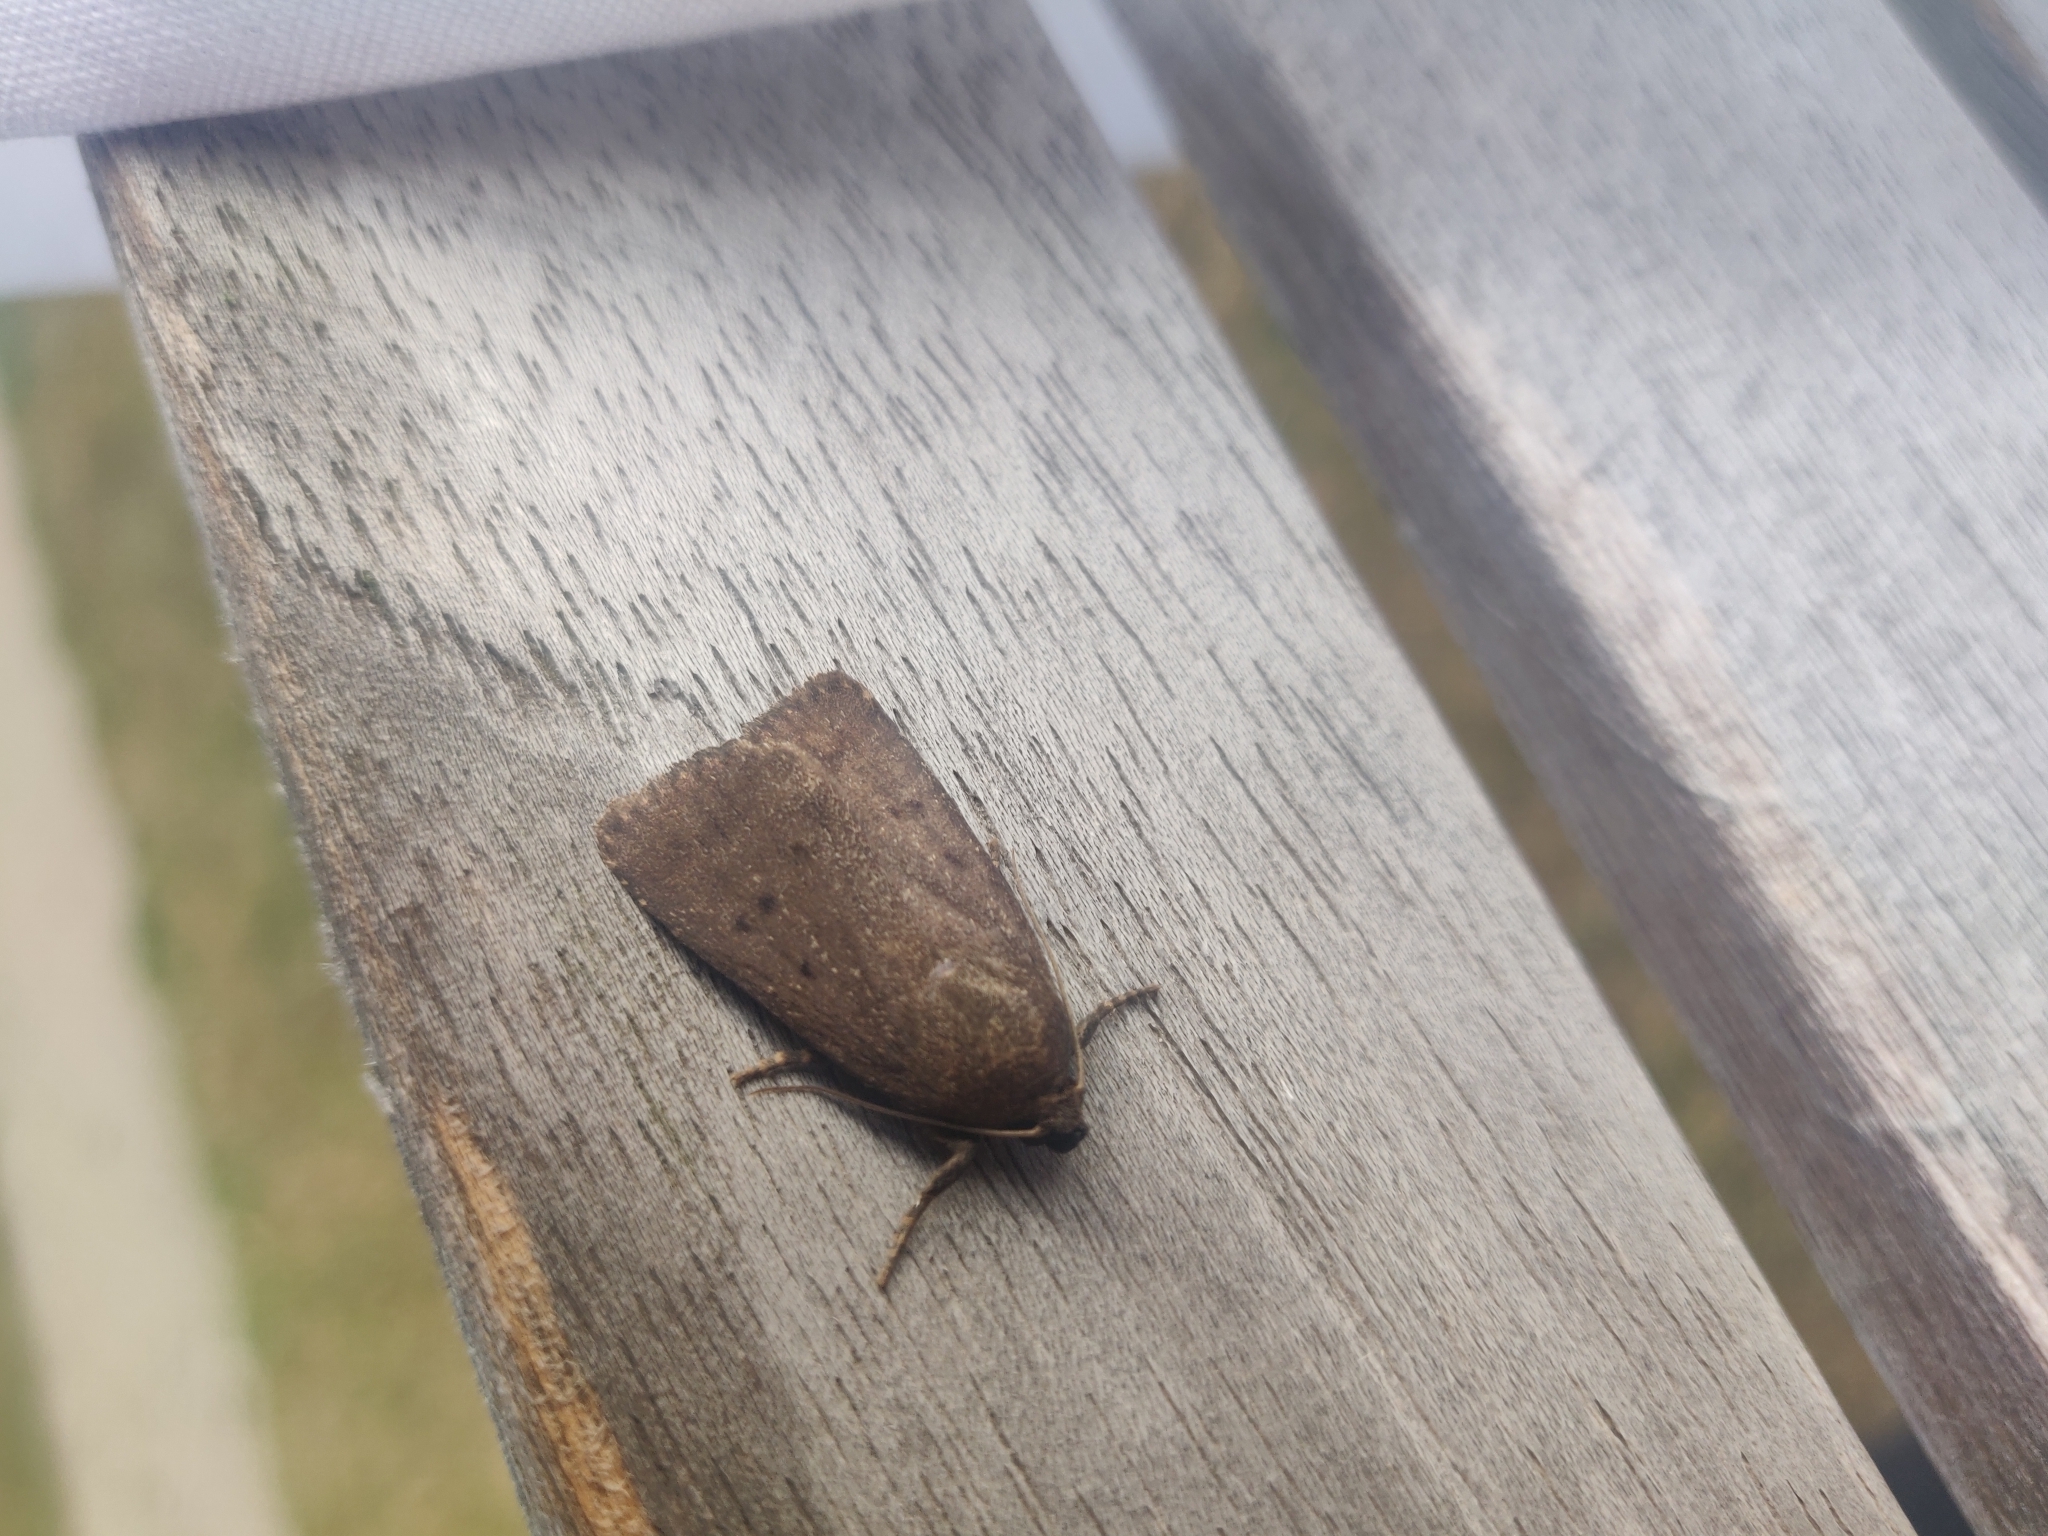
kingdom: Animalia
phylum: Arthropoda
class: Insecta
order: Lepidoptera
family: Noctuidae
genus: Amphipyra
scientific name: Amphipyra tragopoginis
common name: Mouse moth
